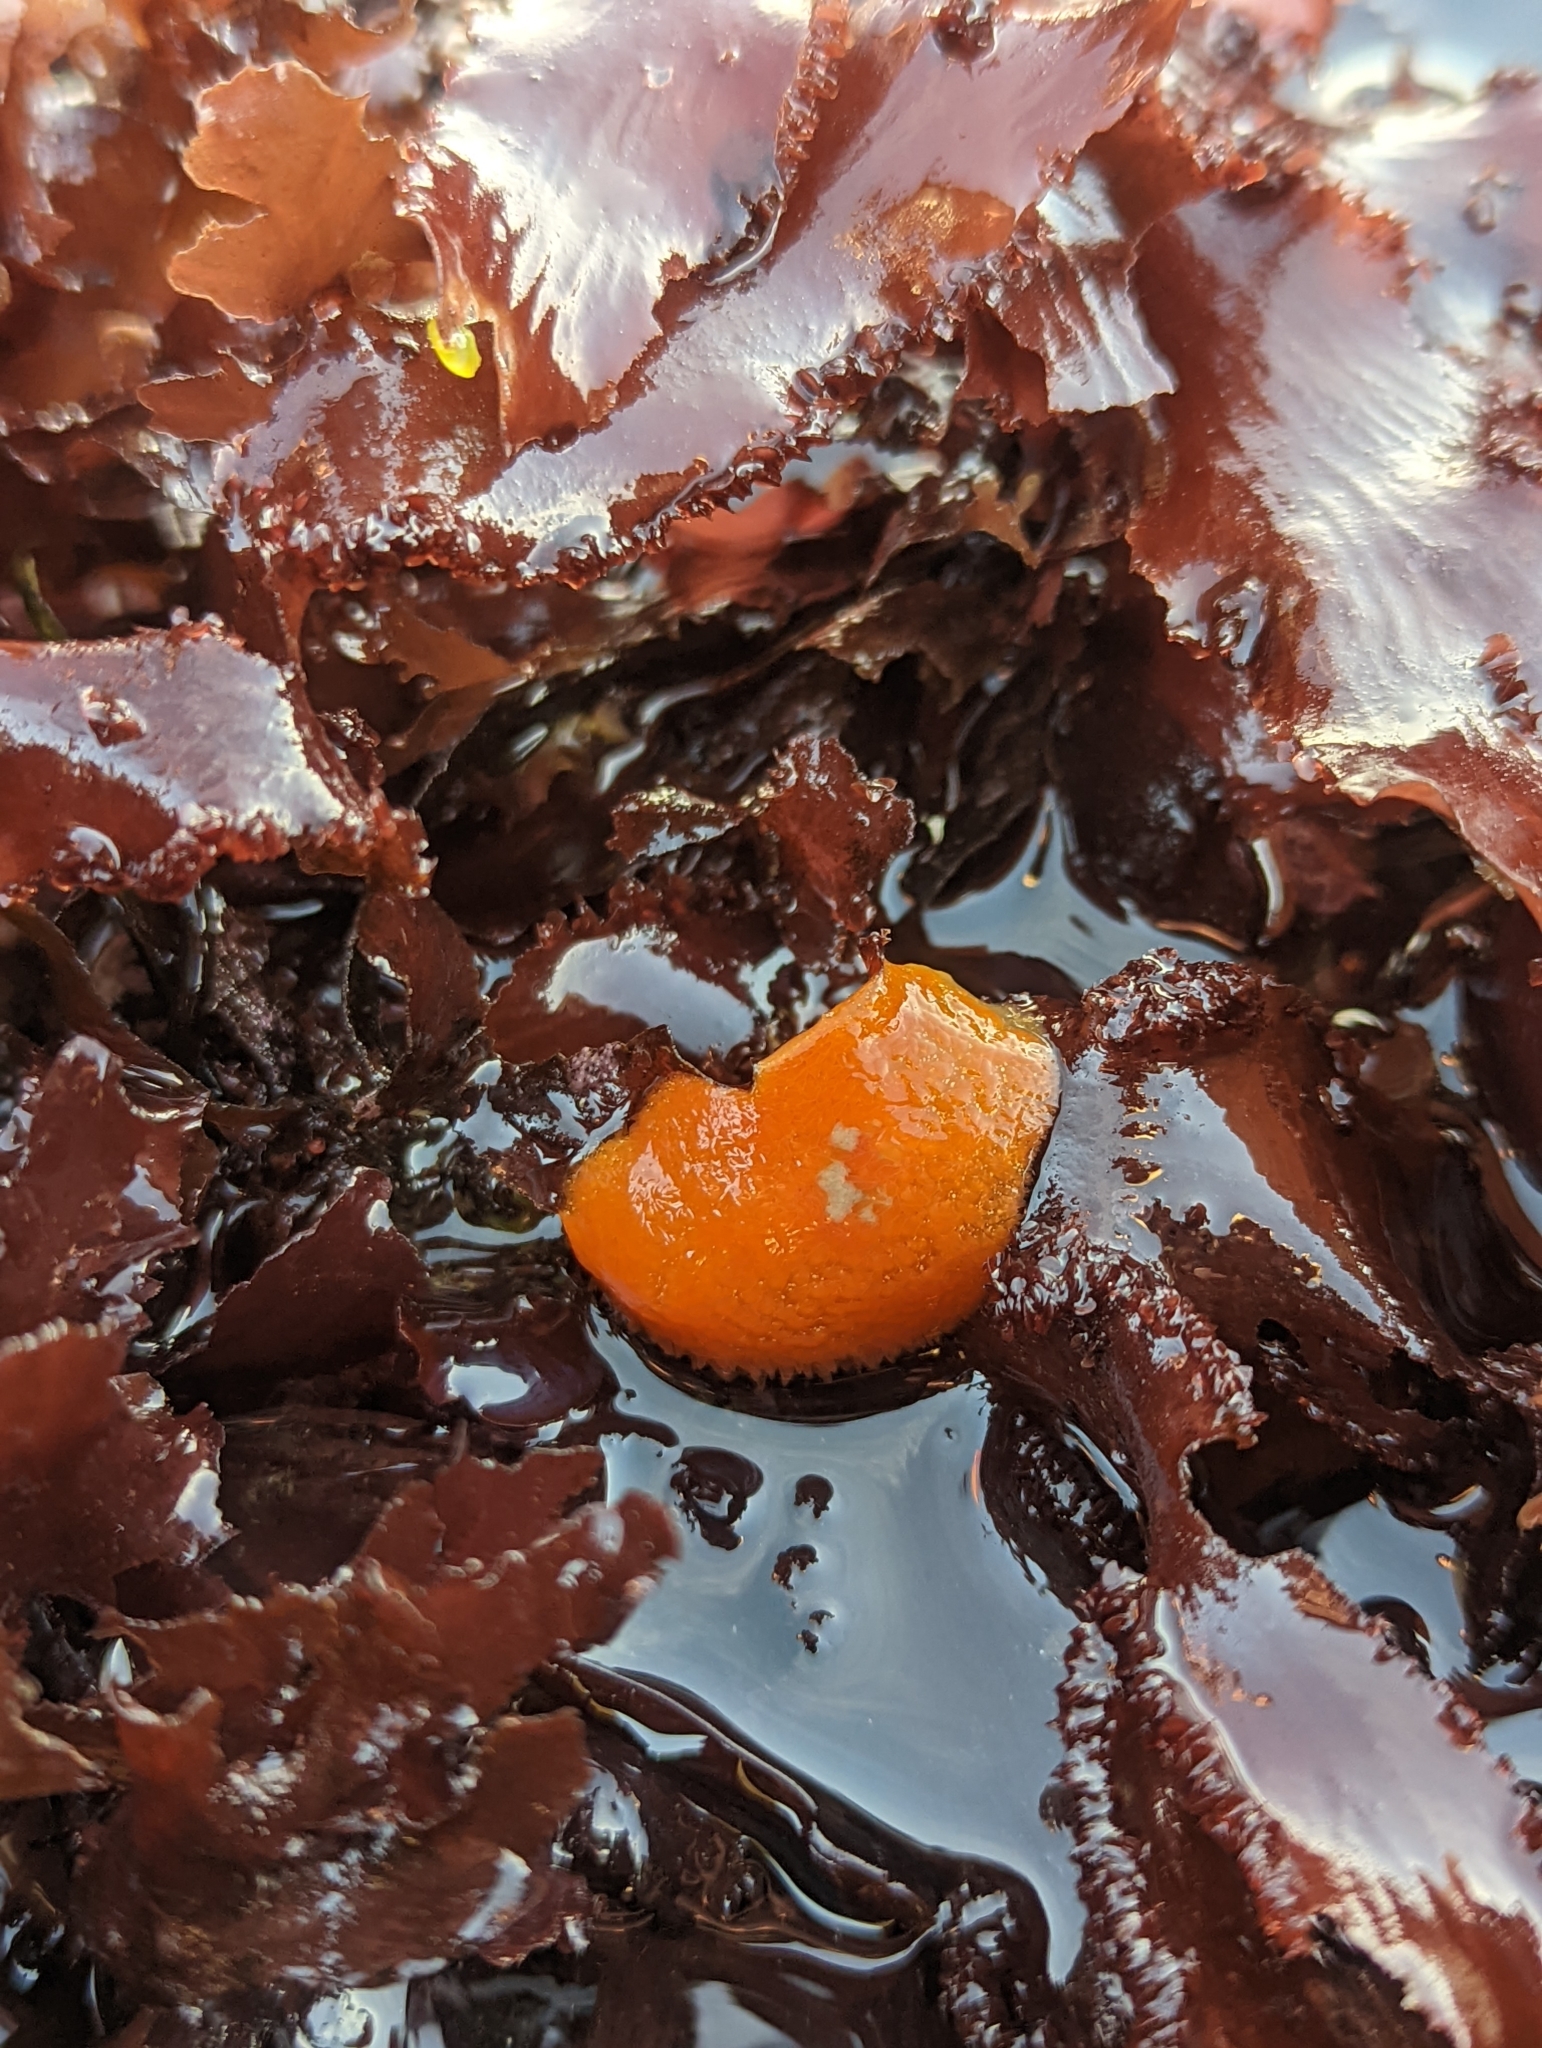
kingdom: Animalia
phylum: Mollusca
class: Gastropoda
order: Nudibranchia
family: Onchidorididae
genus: Acanthodoris
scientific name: Acanthodoris lutea
